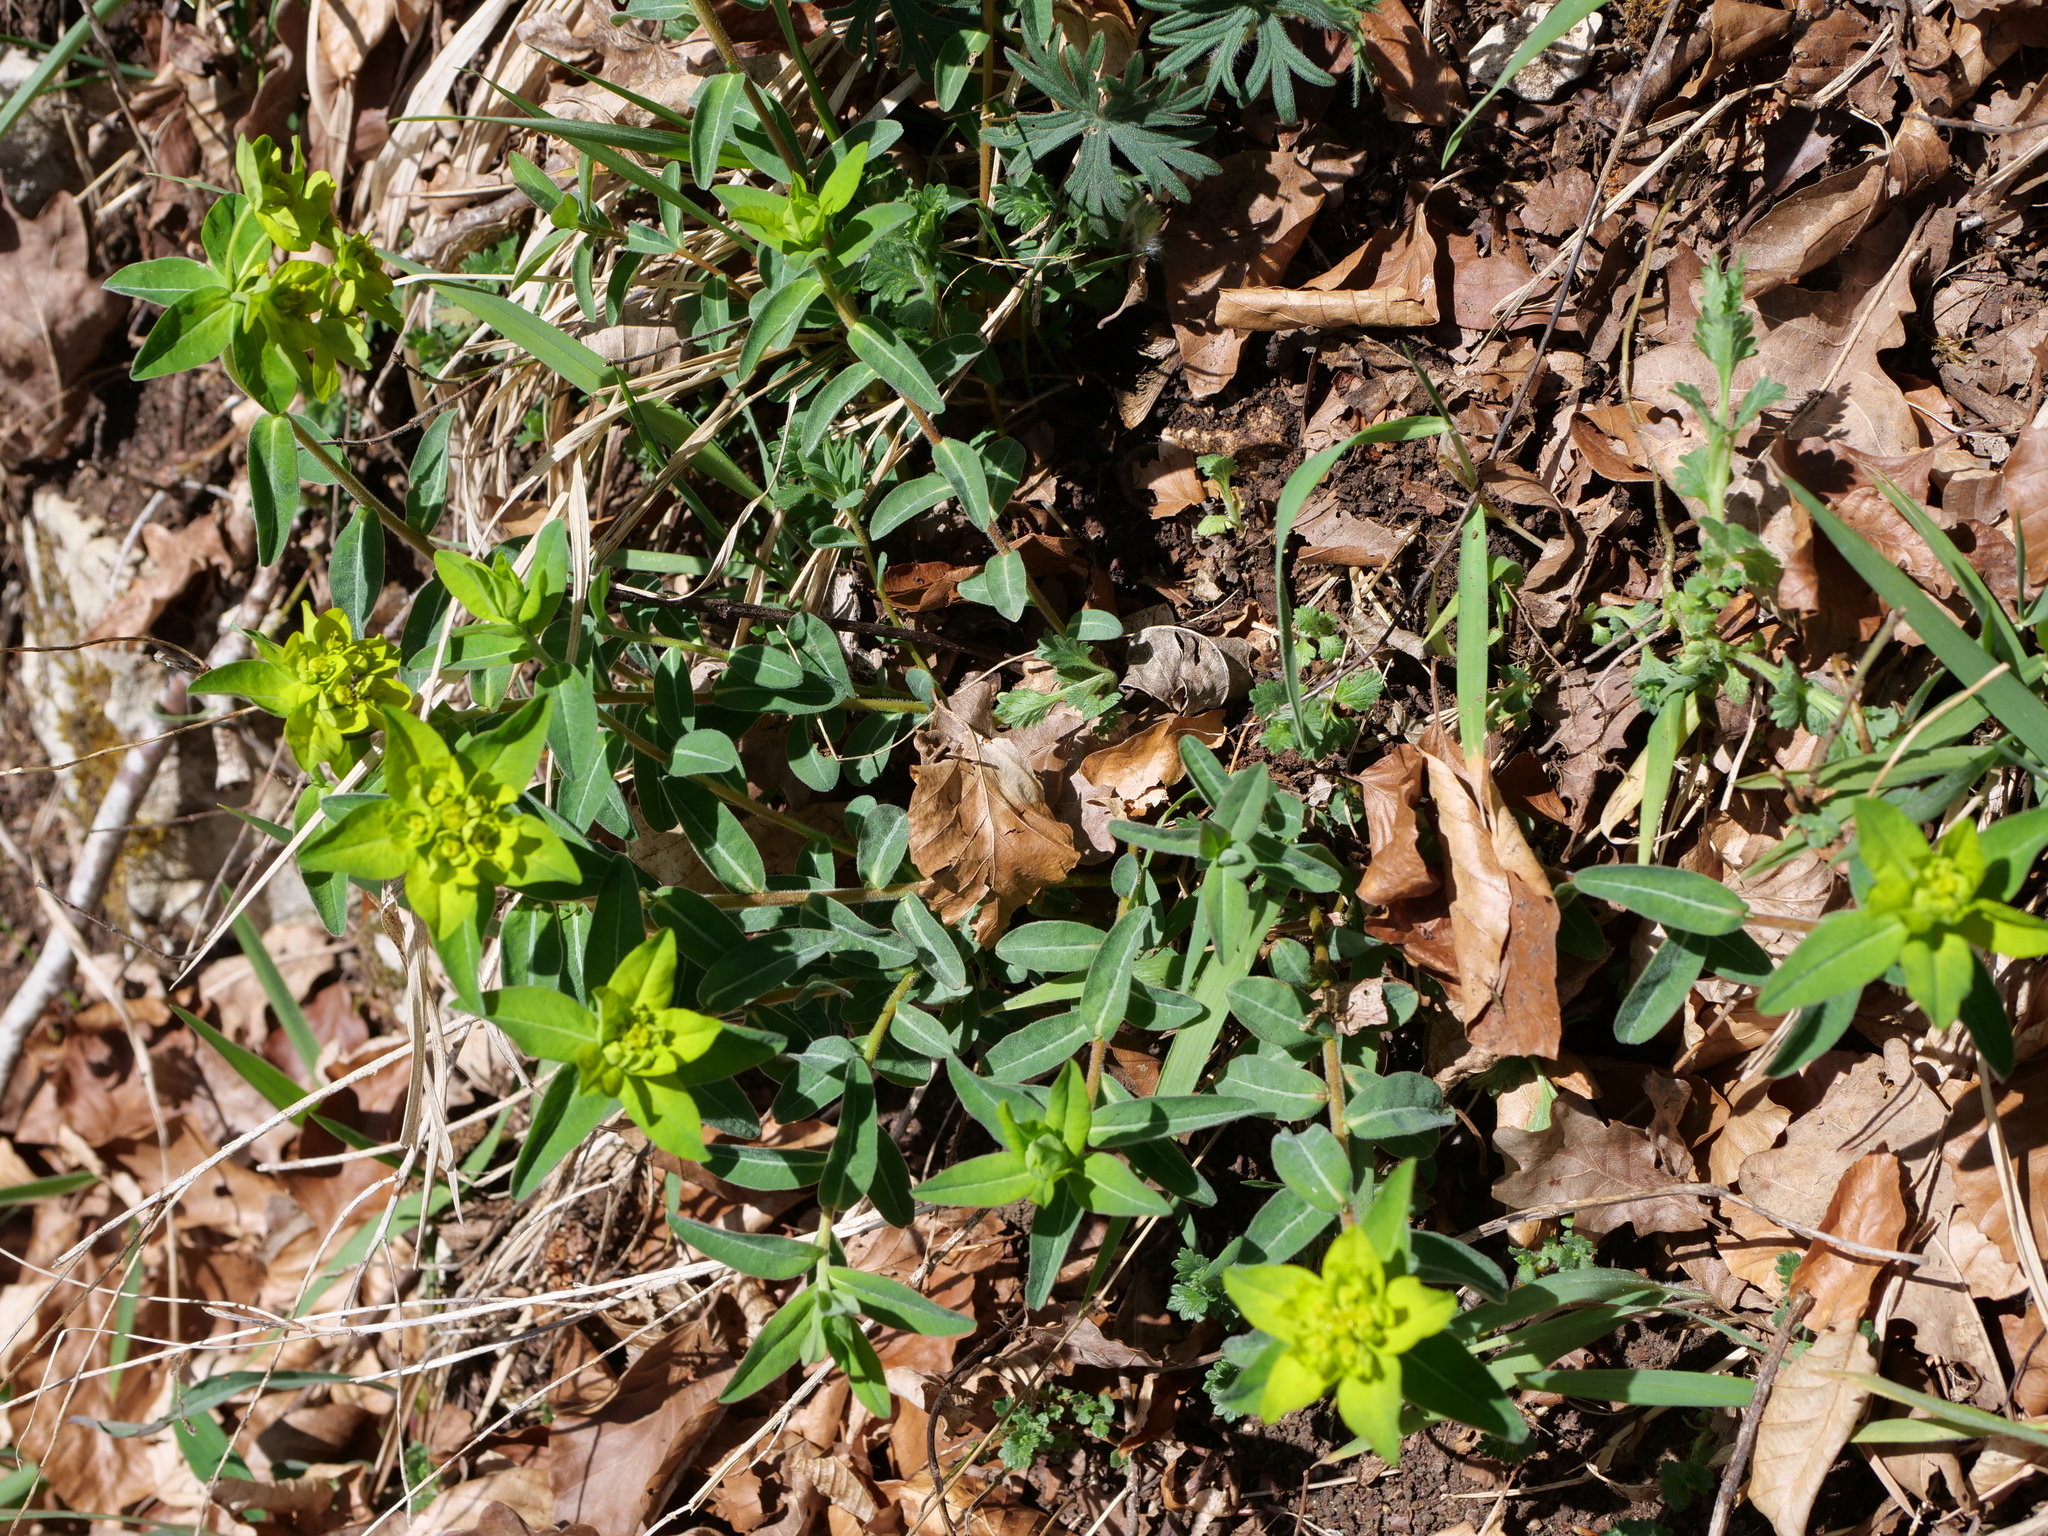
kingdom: Plantae
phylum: Tracheophyta
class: Magnoliopsida
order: Malpighiales
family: Euphorbiaceae
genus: Euphorbia
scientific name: Euphorbia verrucosa
